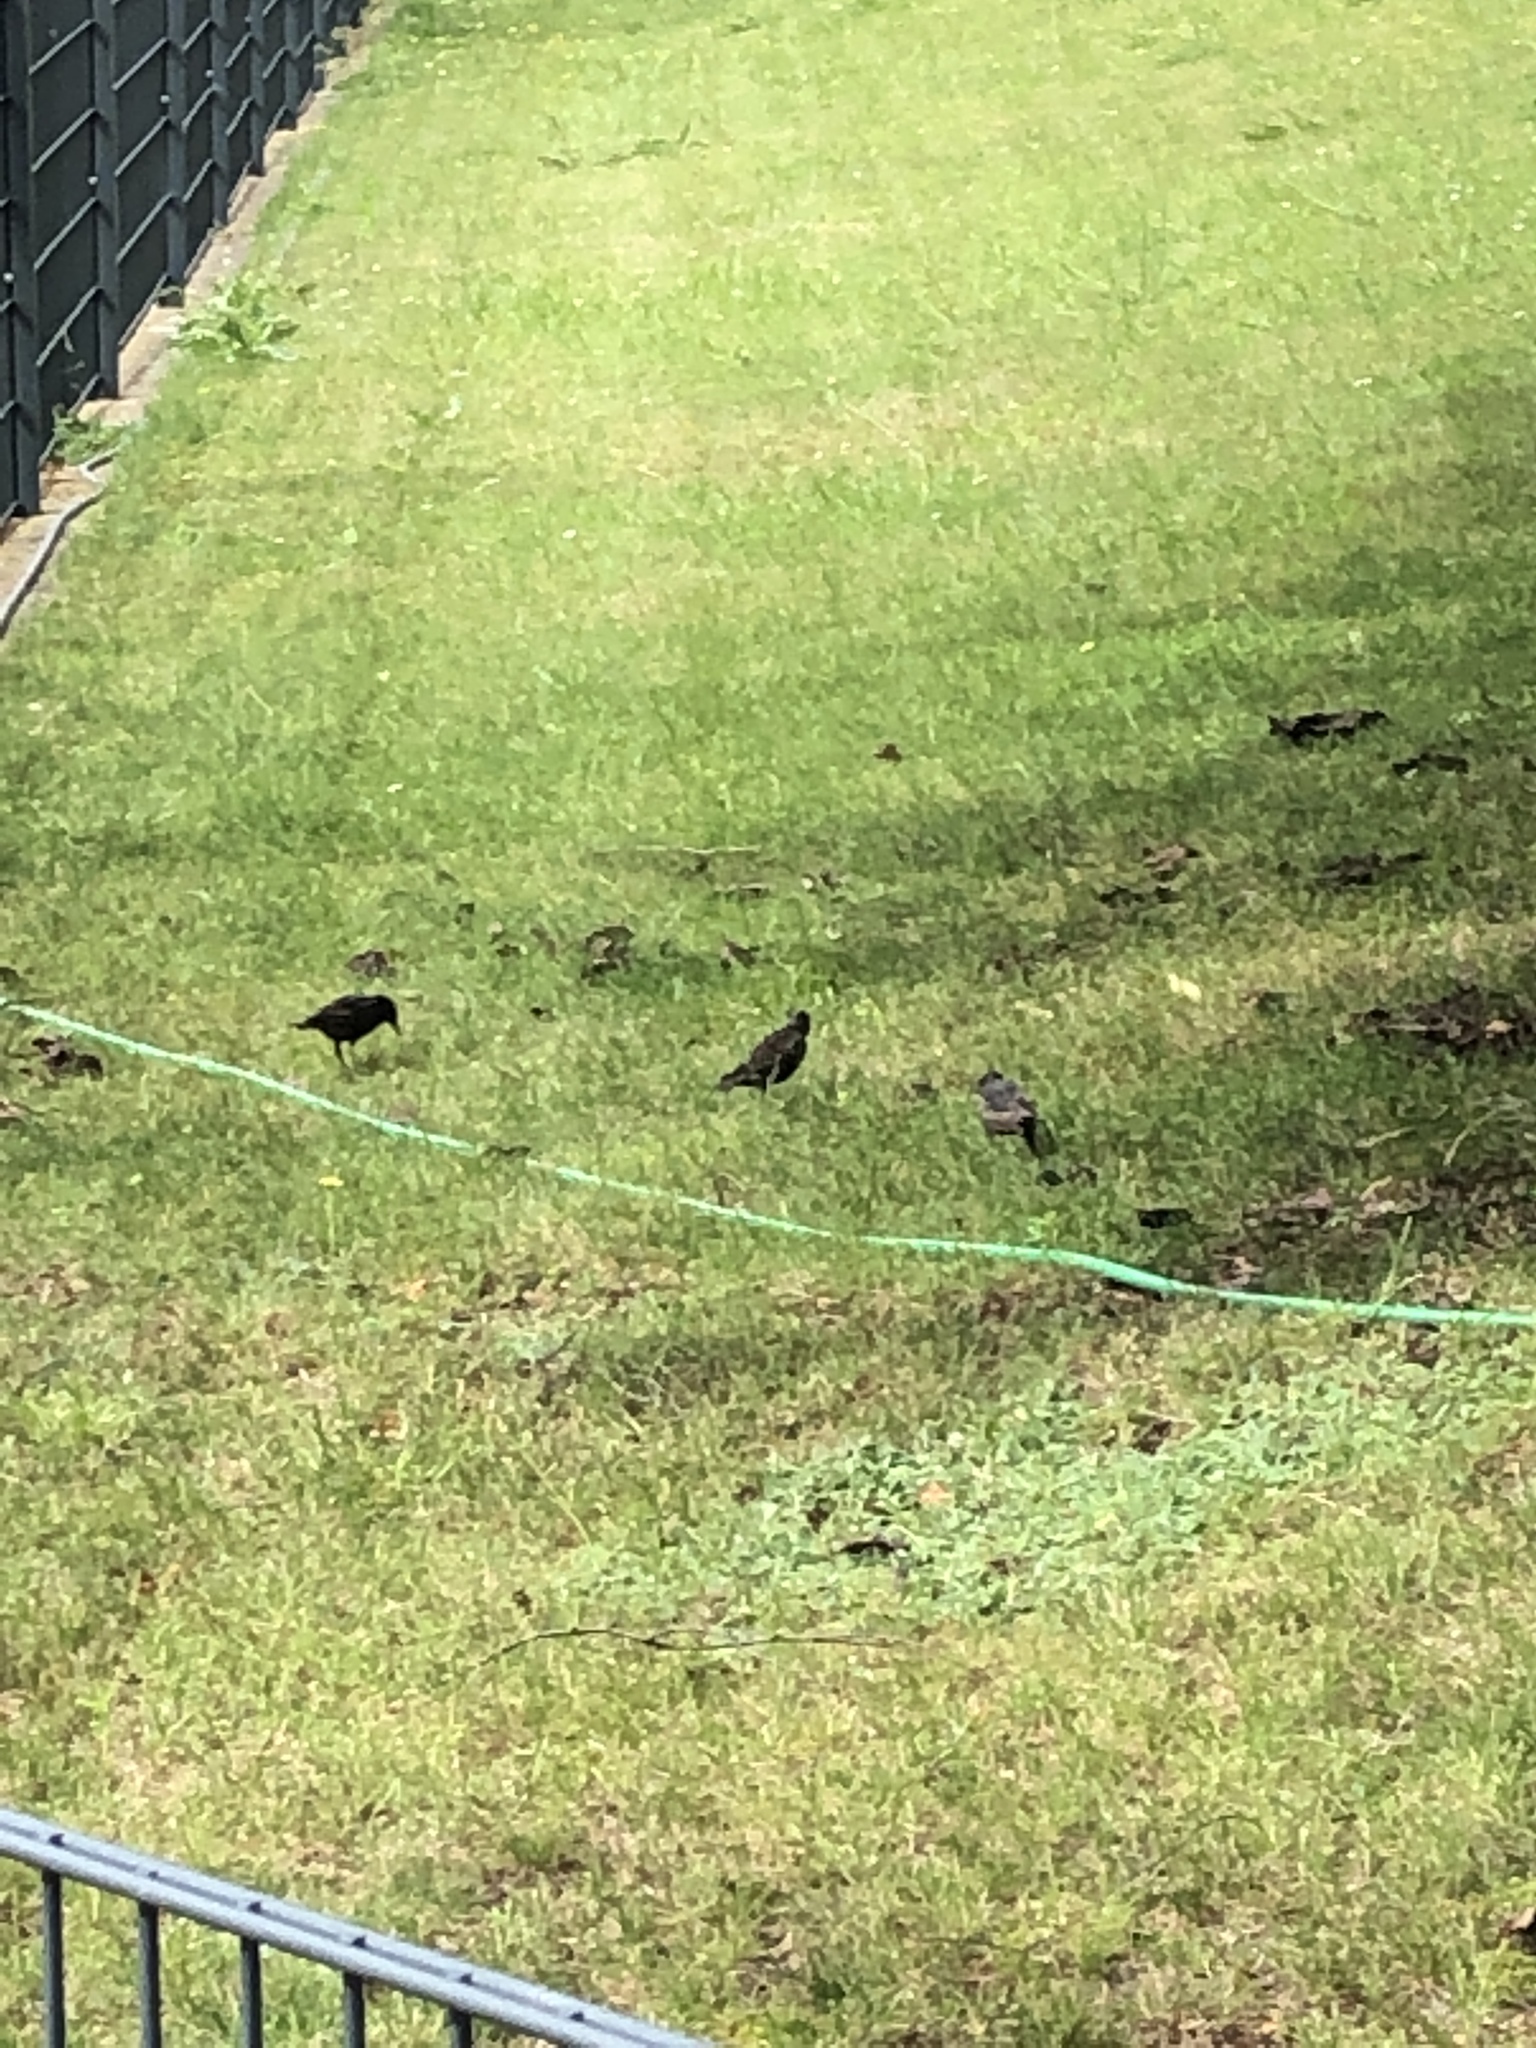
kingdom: Animalia
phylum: Chordata
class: Aves
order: Passeriformes
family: Sturnidae
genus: Sturnus
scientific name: Sturnus vulgaris
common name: Common starling
